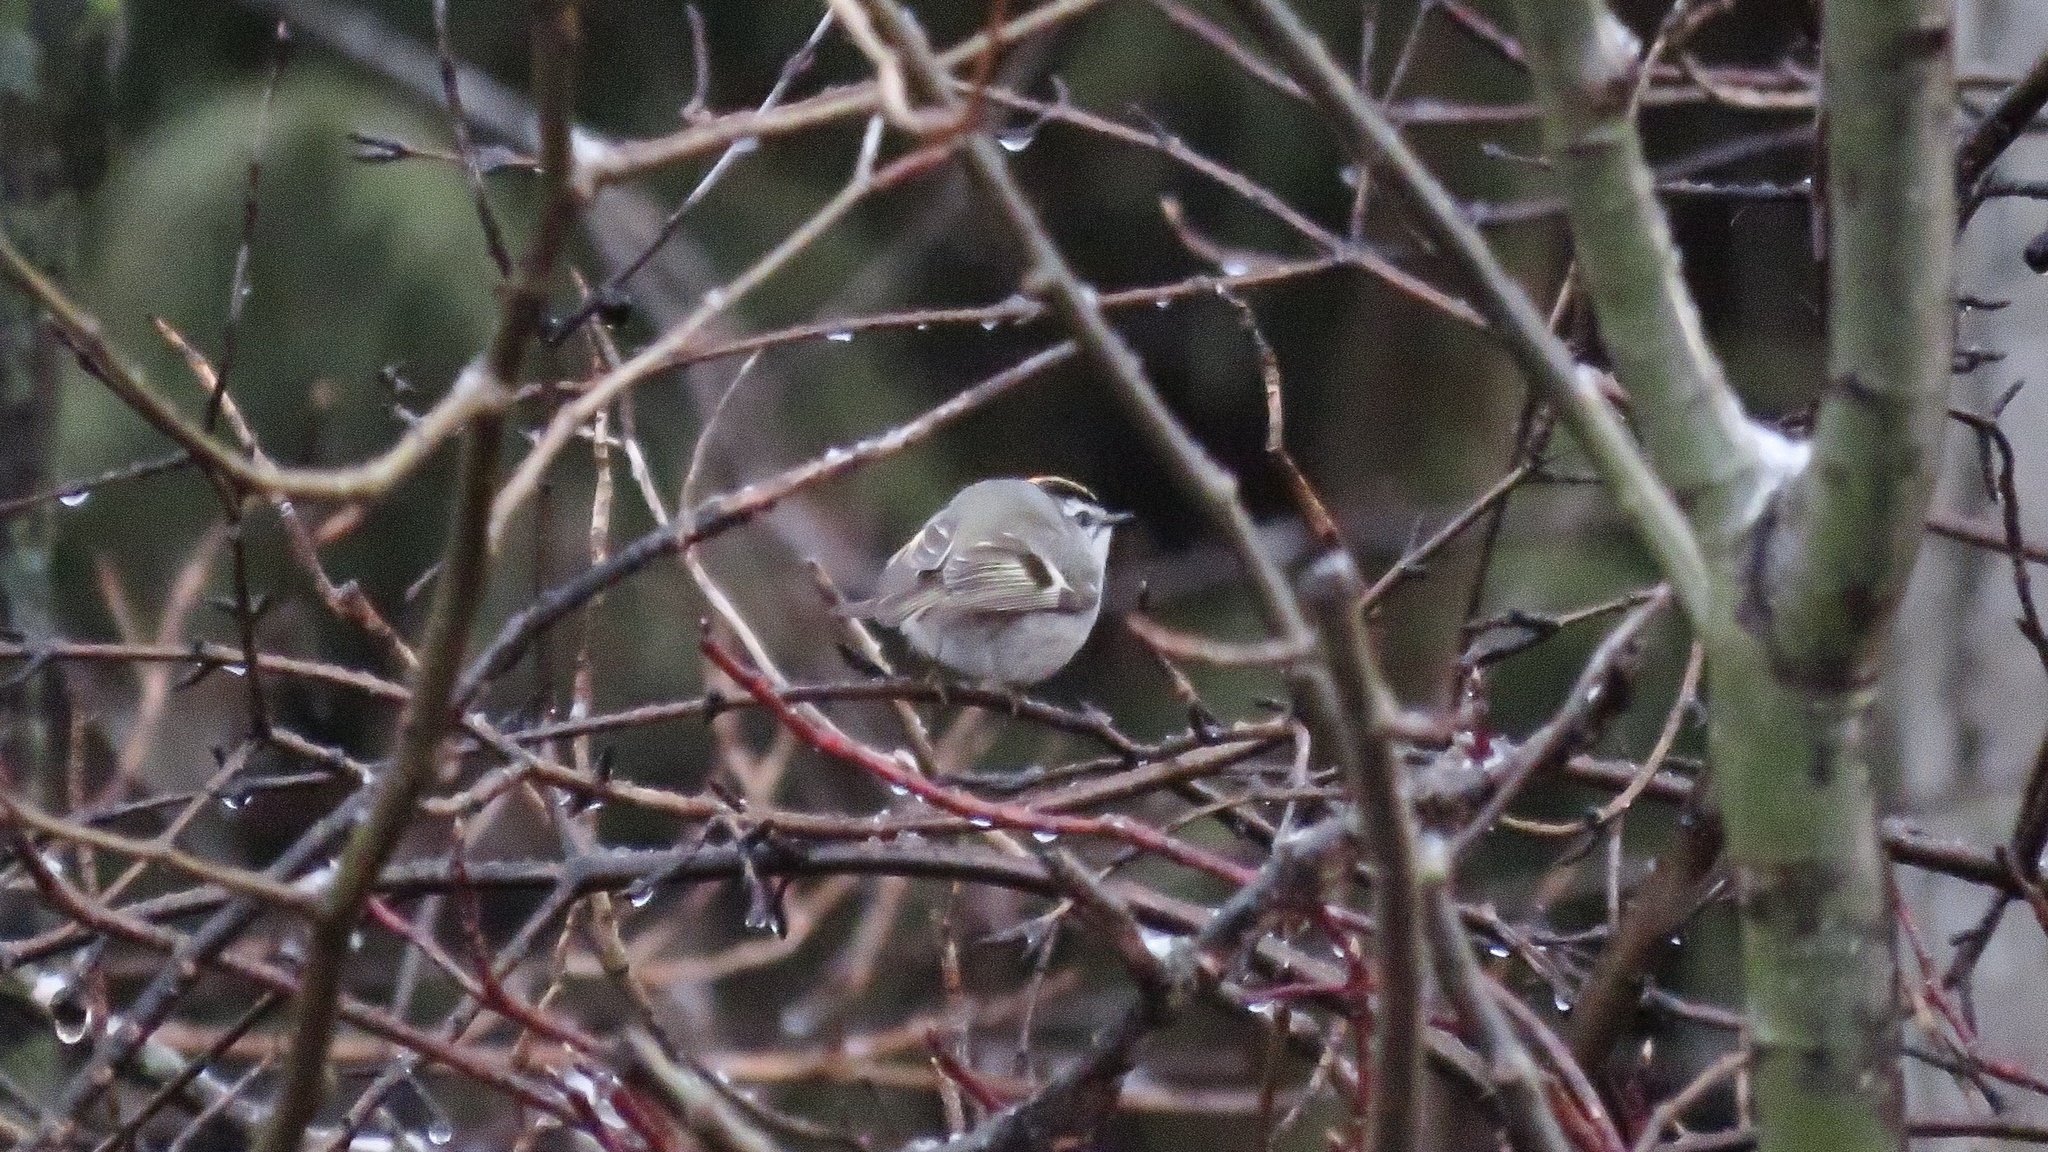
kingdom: Animalia
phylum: Chordata
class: Aves
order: Passeriformes
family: Regulidae
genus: Regulus
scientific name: Regulus satrapa
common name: Golden-crowned kinglet
